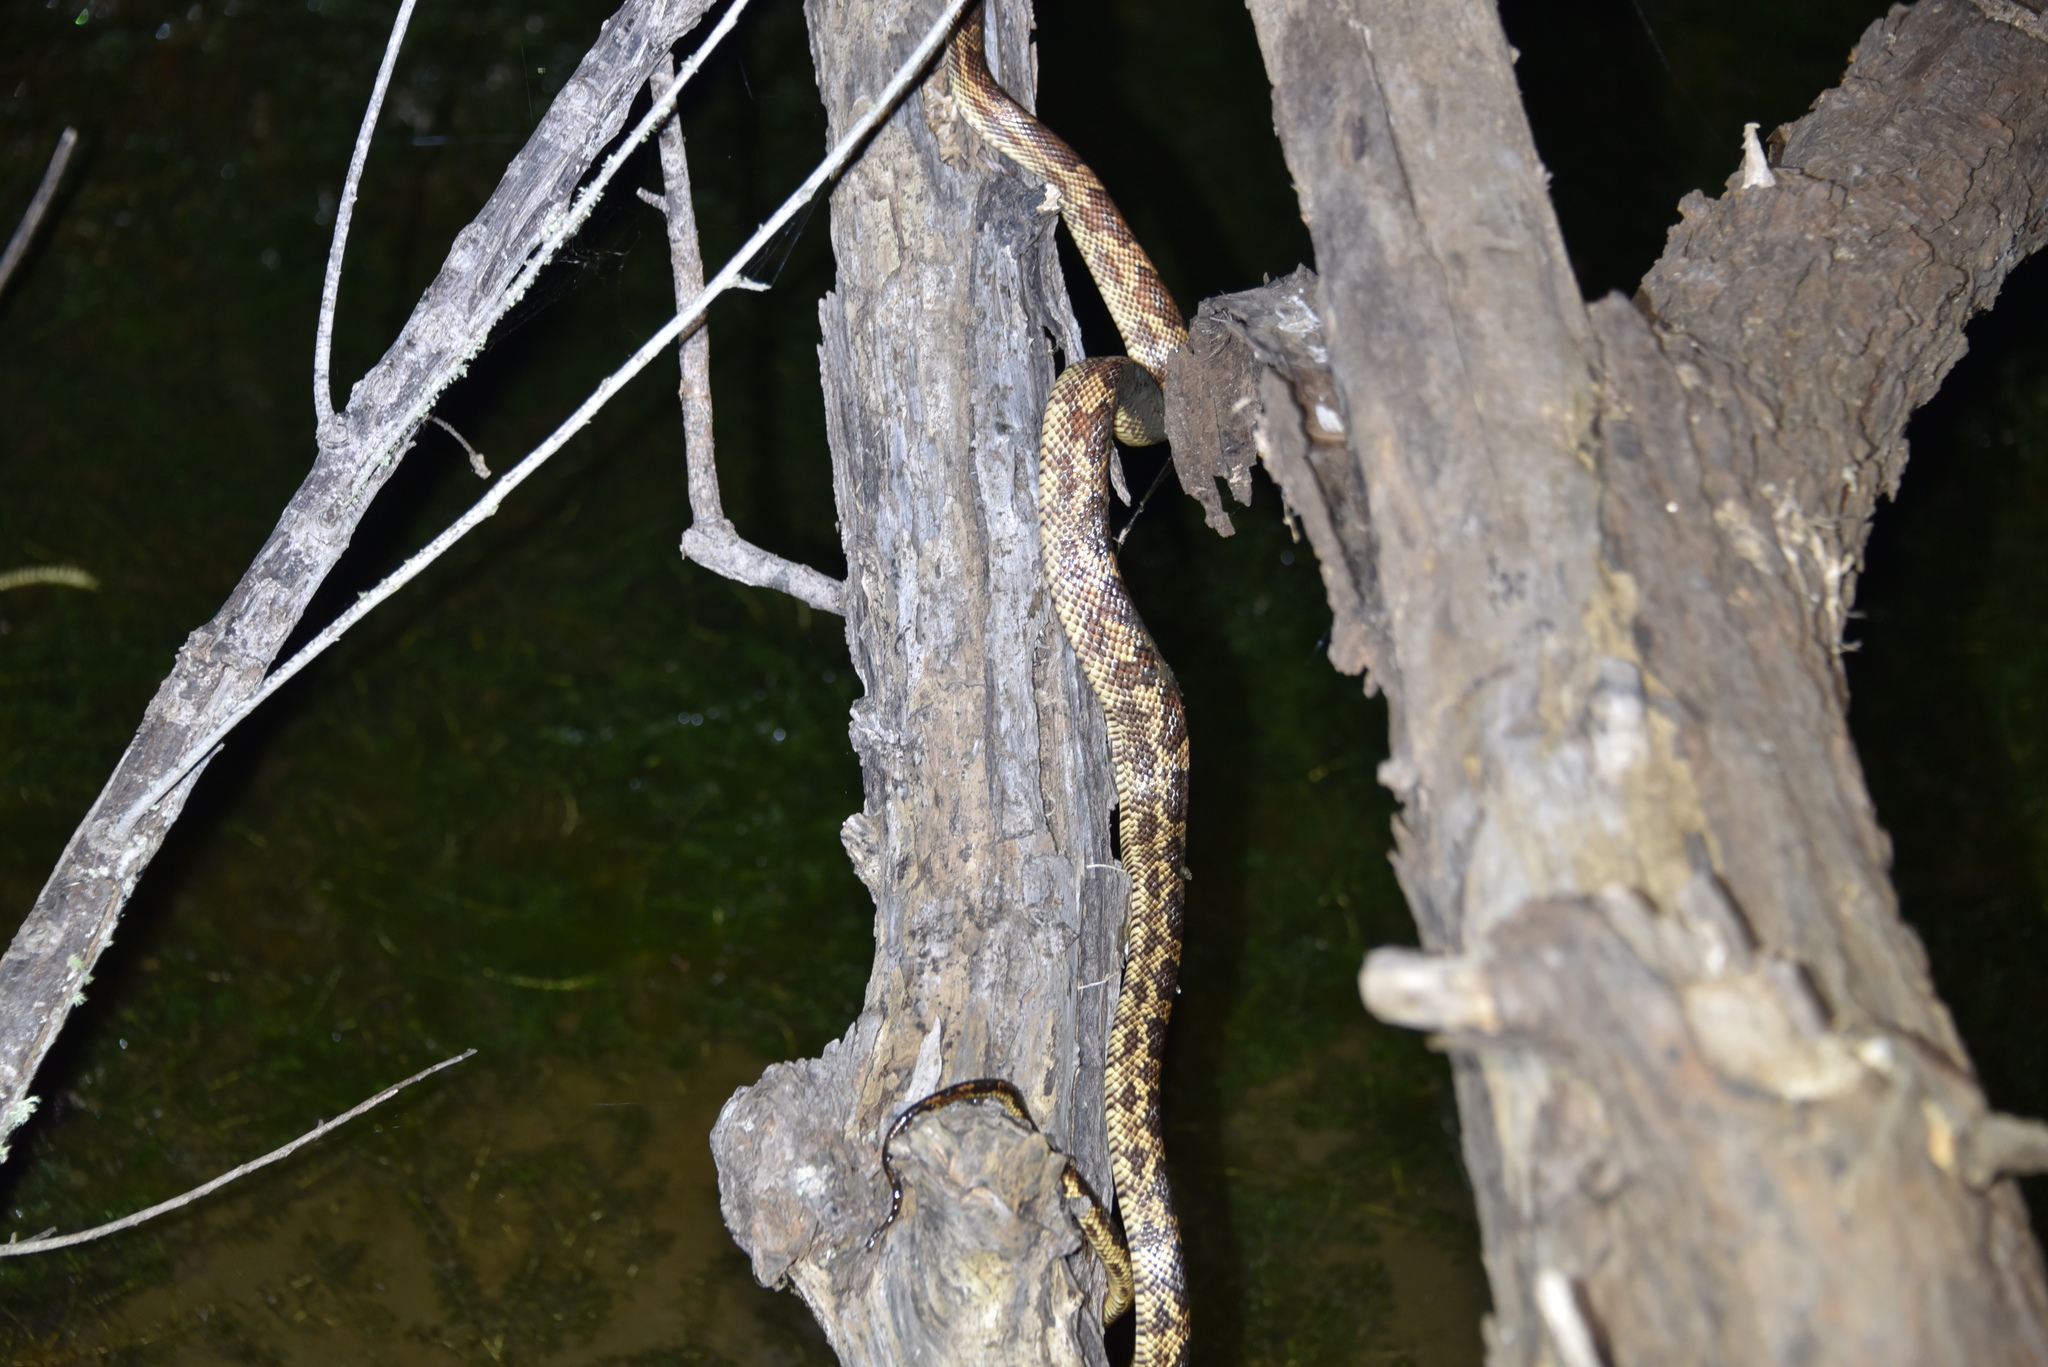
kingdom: Animalia
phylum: Chordata
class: Squamata
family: Colubridae
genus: Pantherophis
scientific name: Pantherophis obsoletus
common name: Black rat snake
